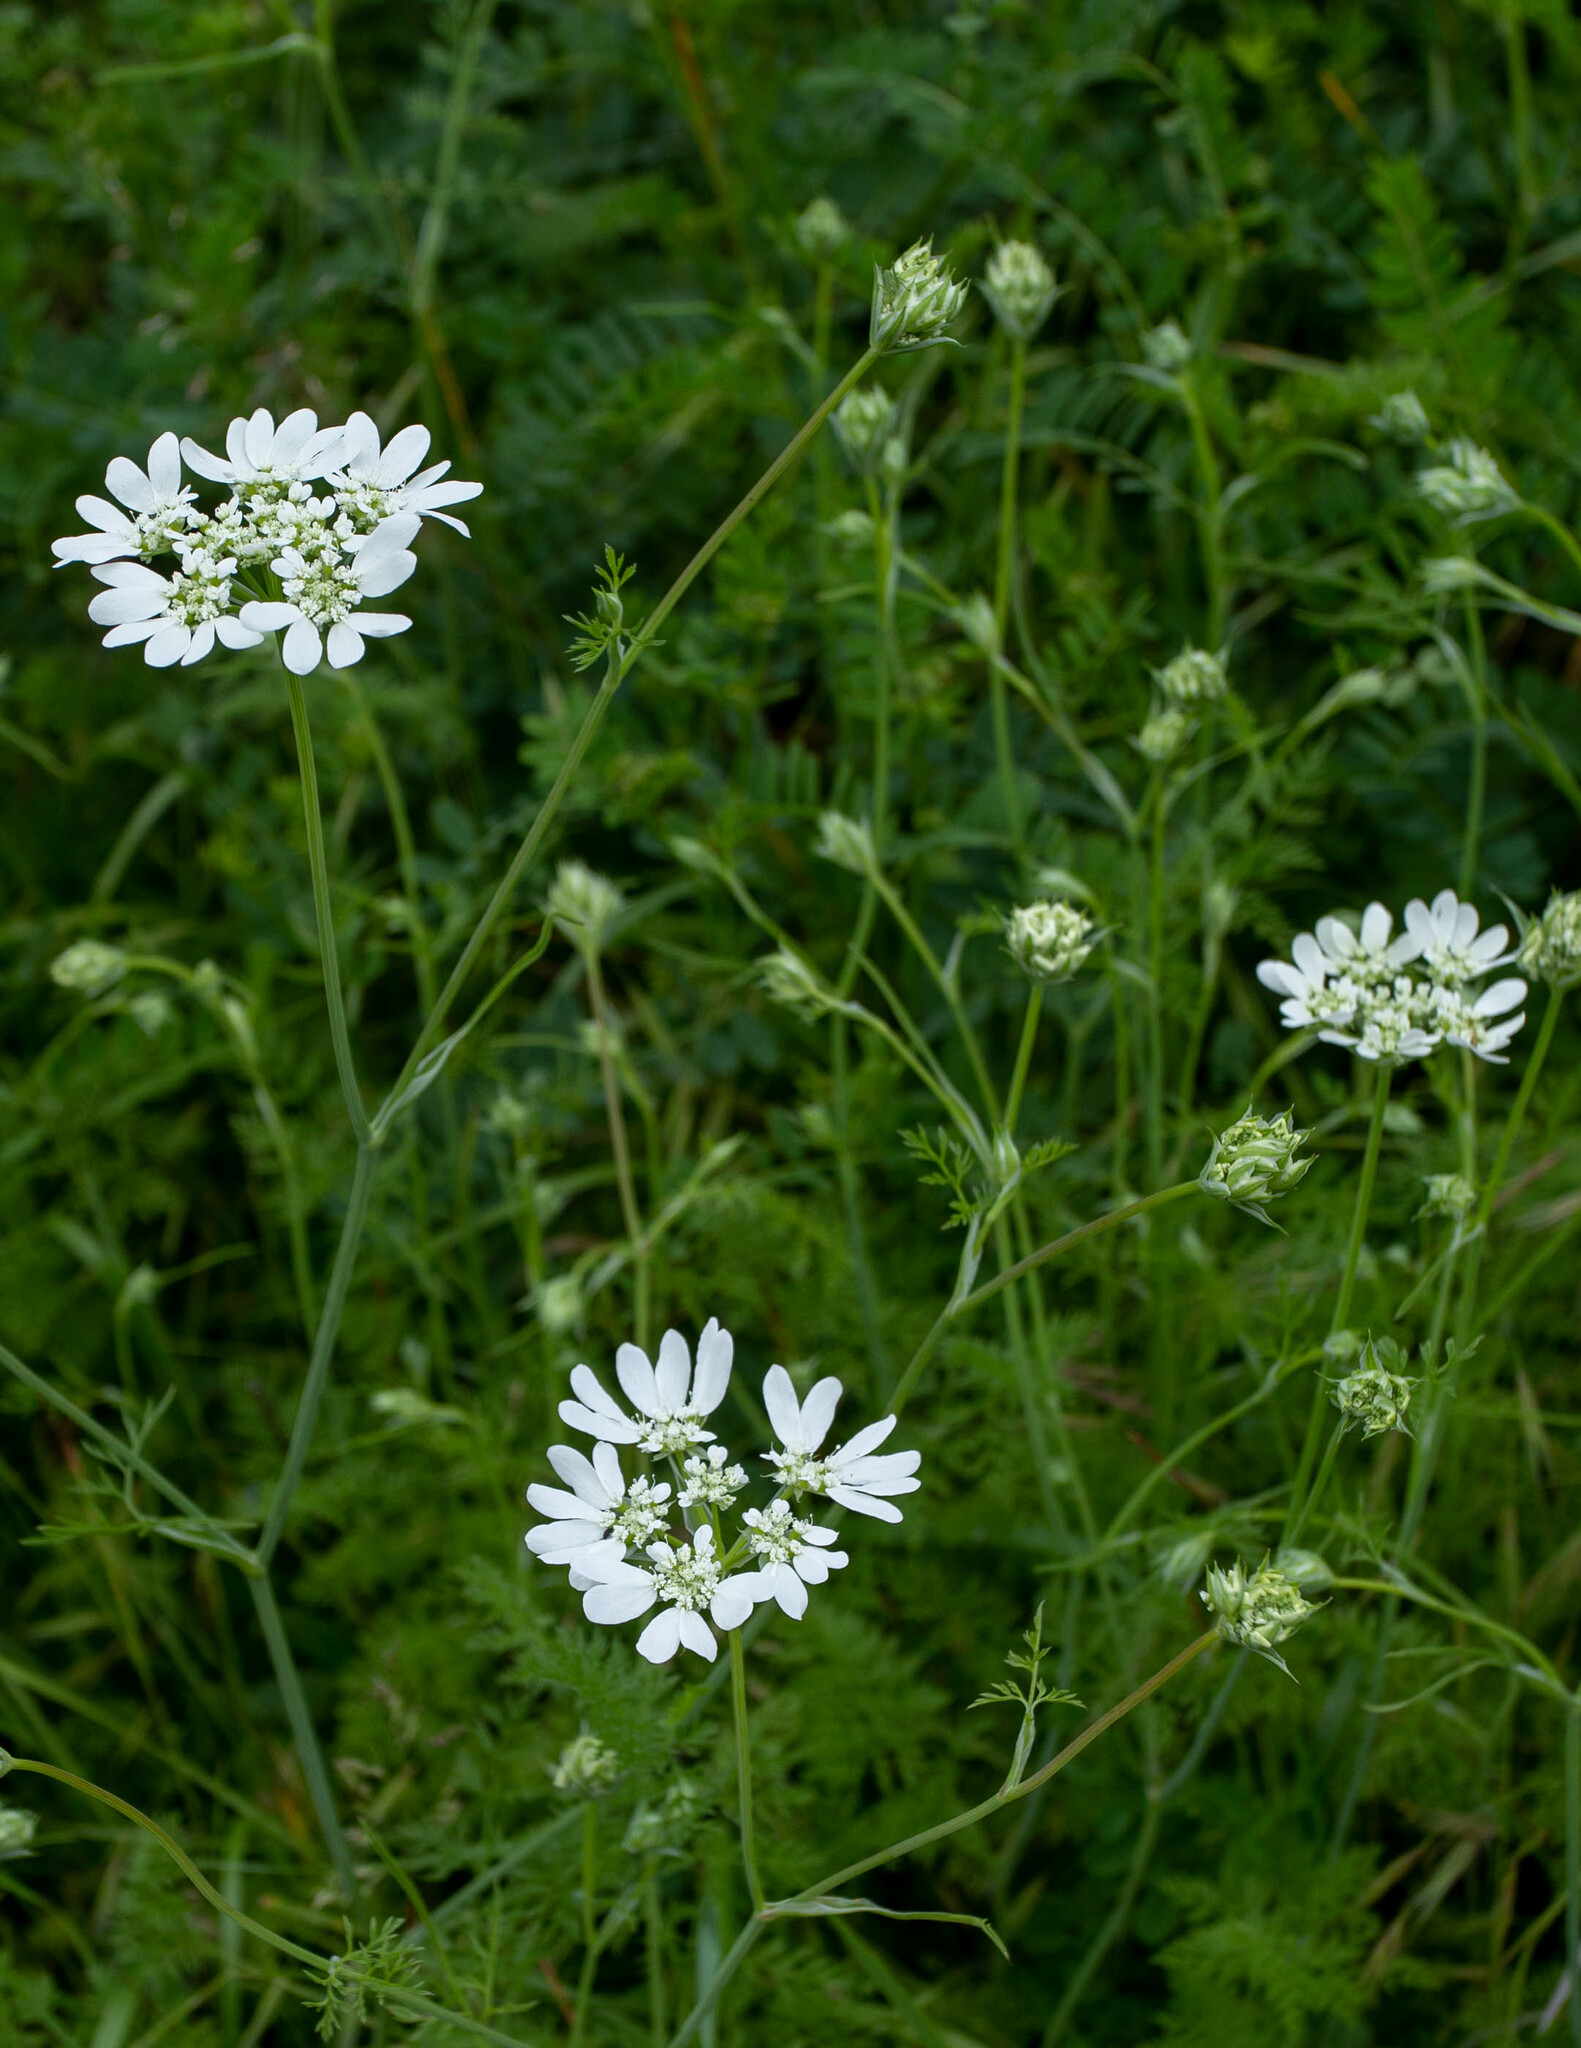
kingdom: Plantae
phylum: Tracheophyta
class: Magnoliopsida
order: Apiales
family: Apiaceae
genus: Orlaya
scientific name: Orlaya grandiflora
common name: White lace flower
